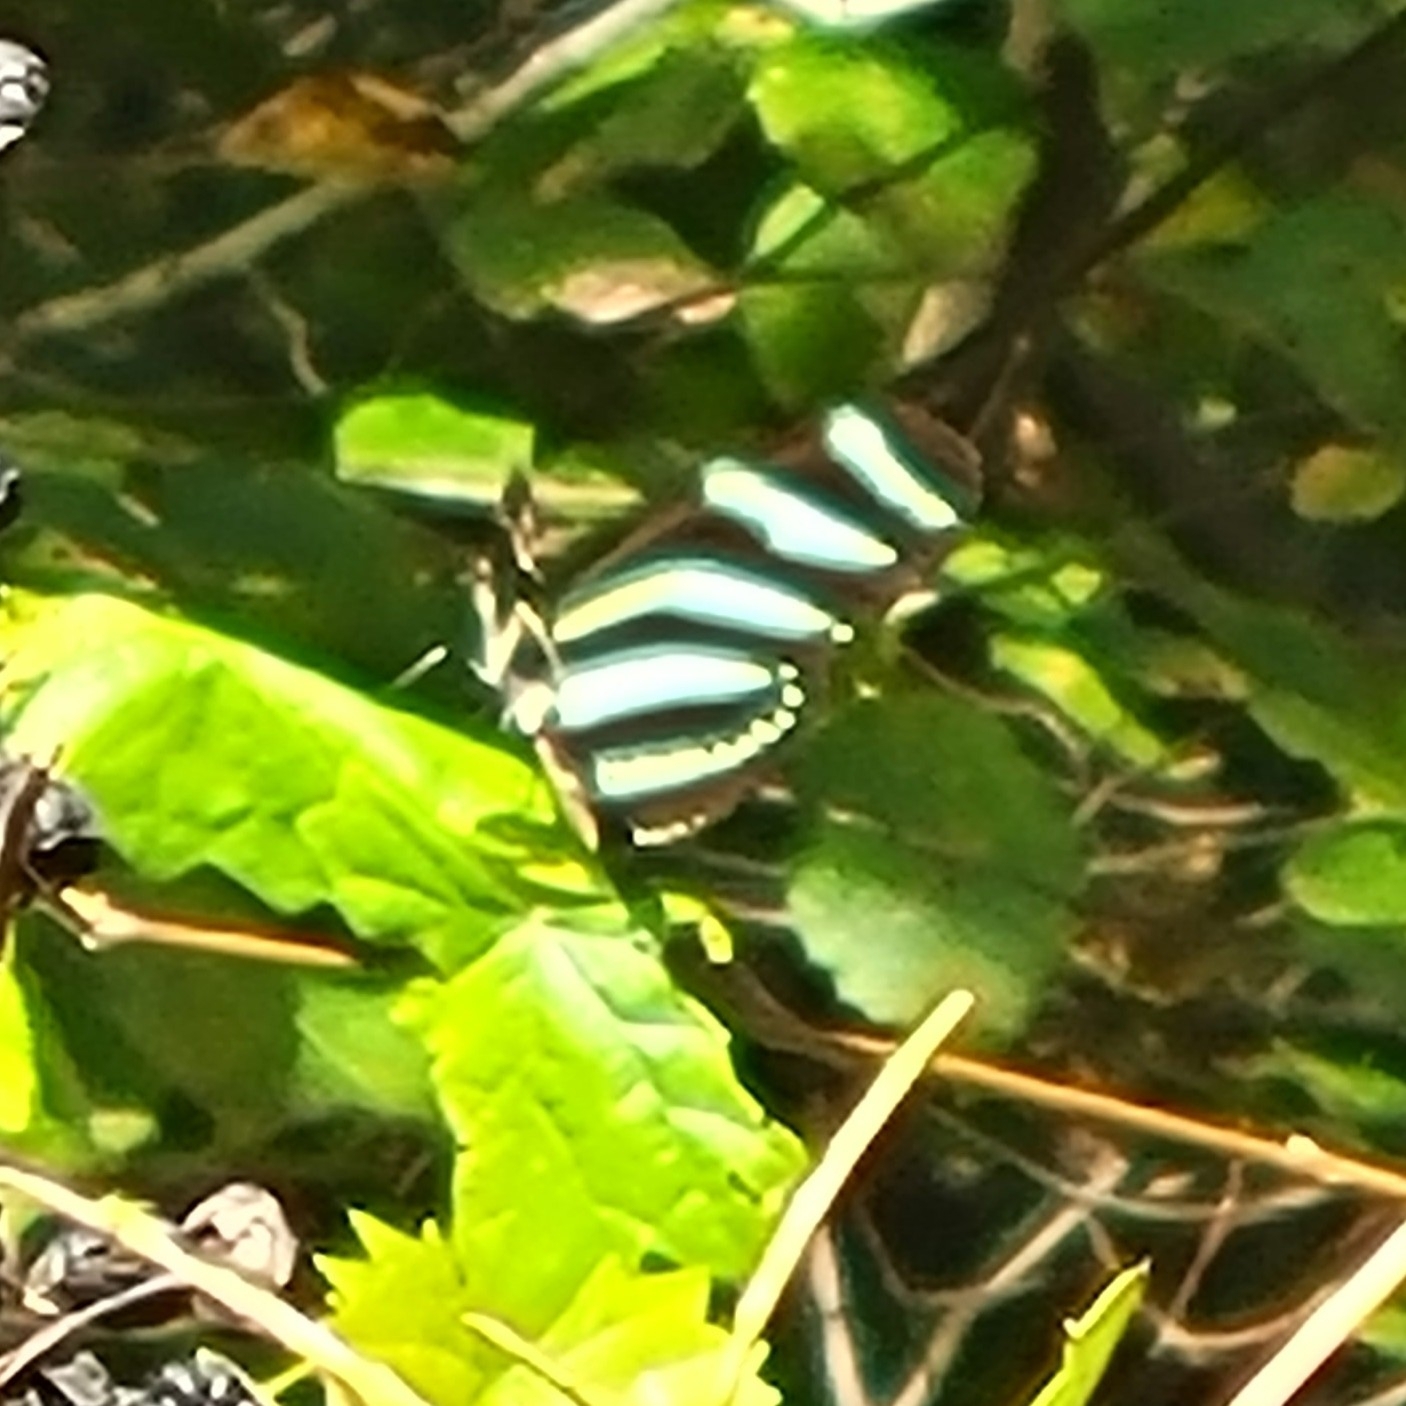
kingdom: Animalia
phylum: Arthropoda
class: Insecta
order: Lepidoptera
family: Nymphalidae
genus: Heliconius
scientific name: Heliconius charithonia
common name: Zebra long wing
